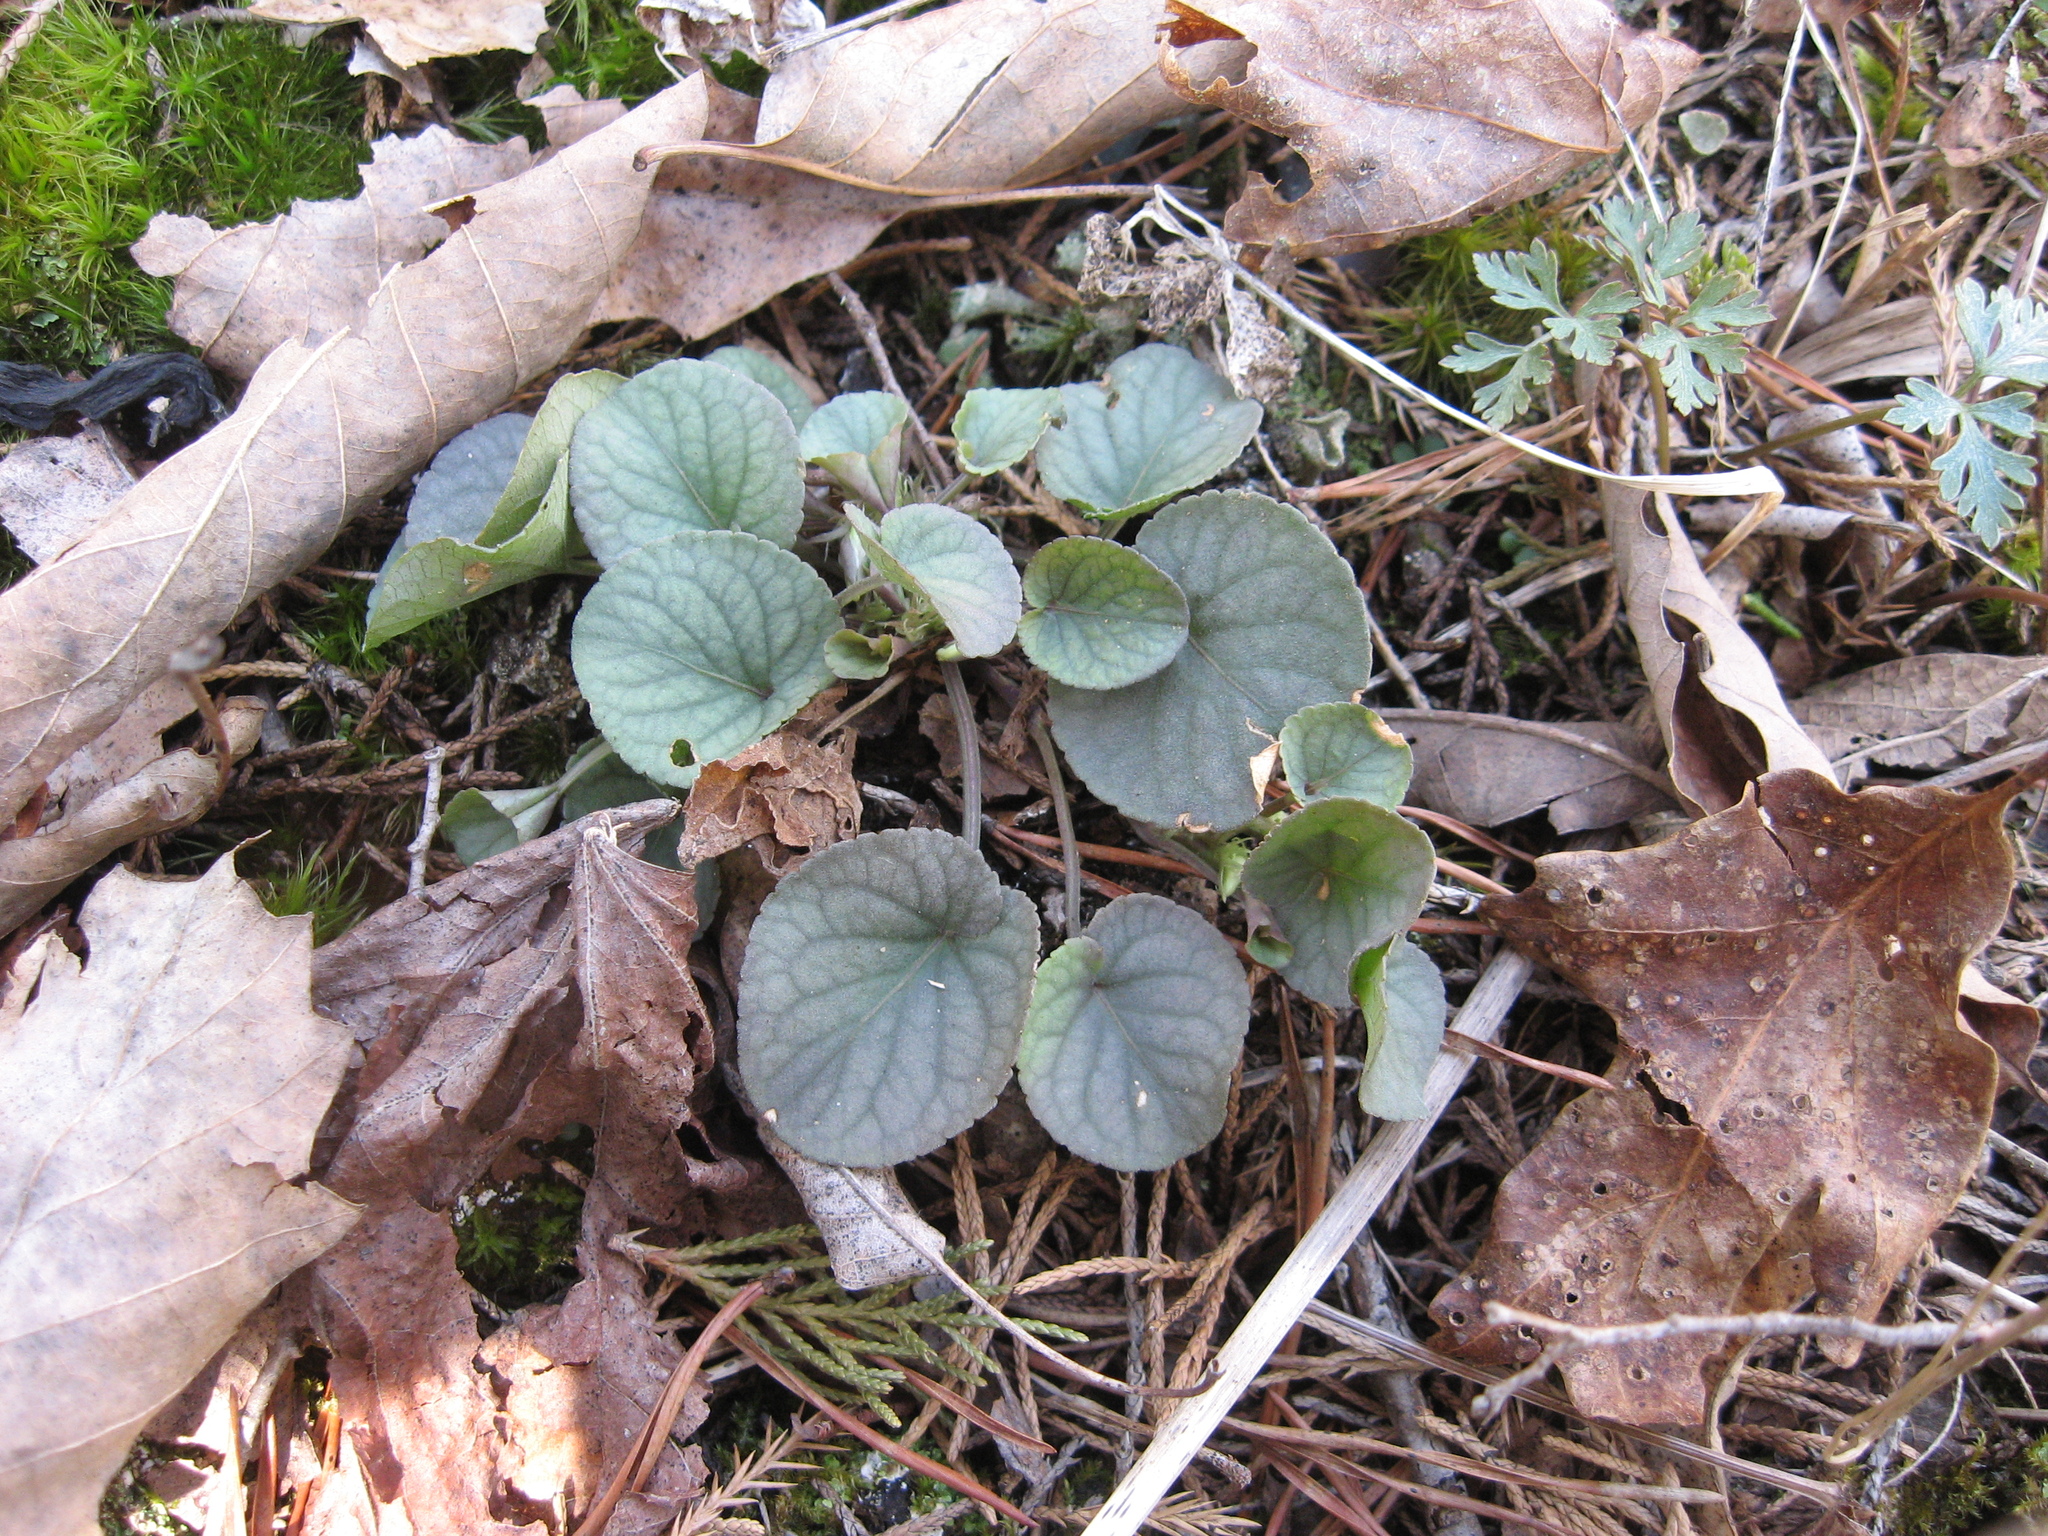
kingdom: Plantae
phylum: Tracheophyta
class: Magnoliopsida
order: Malpighiales
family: Violaceae
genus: Viola
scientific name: Viola walteri
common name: Prostrate southern violet
